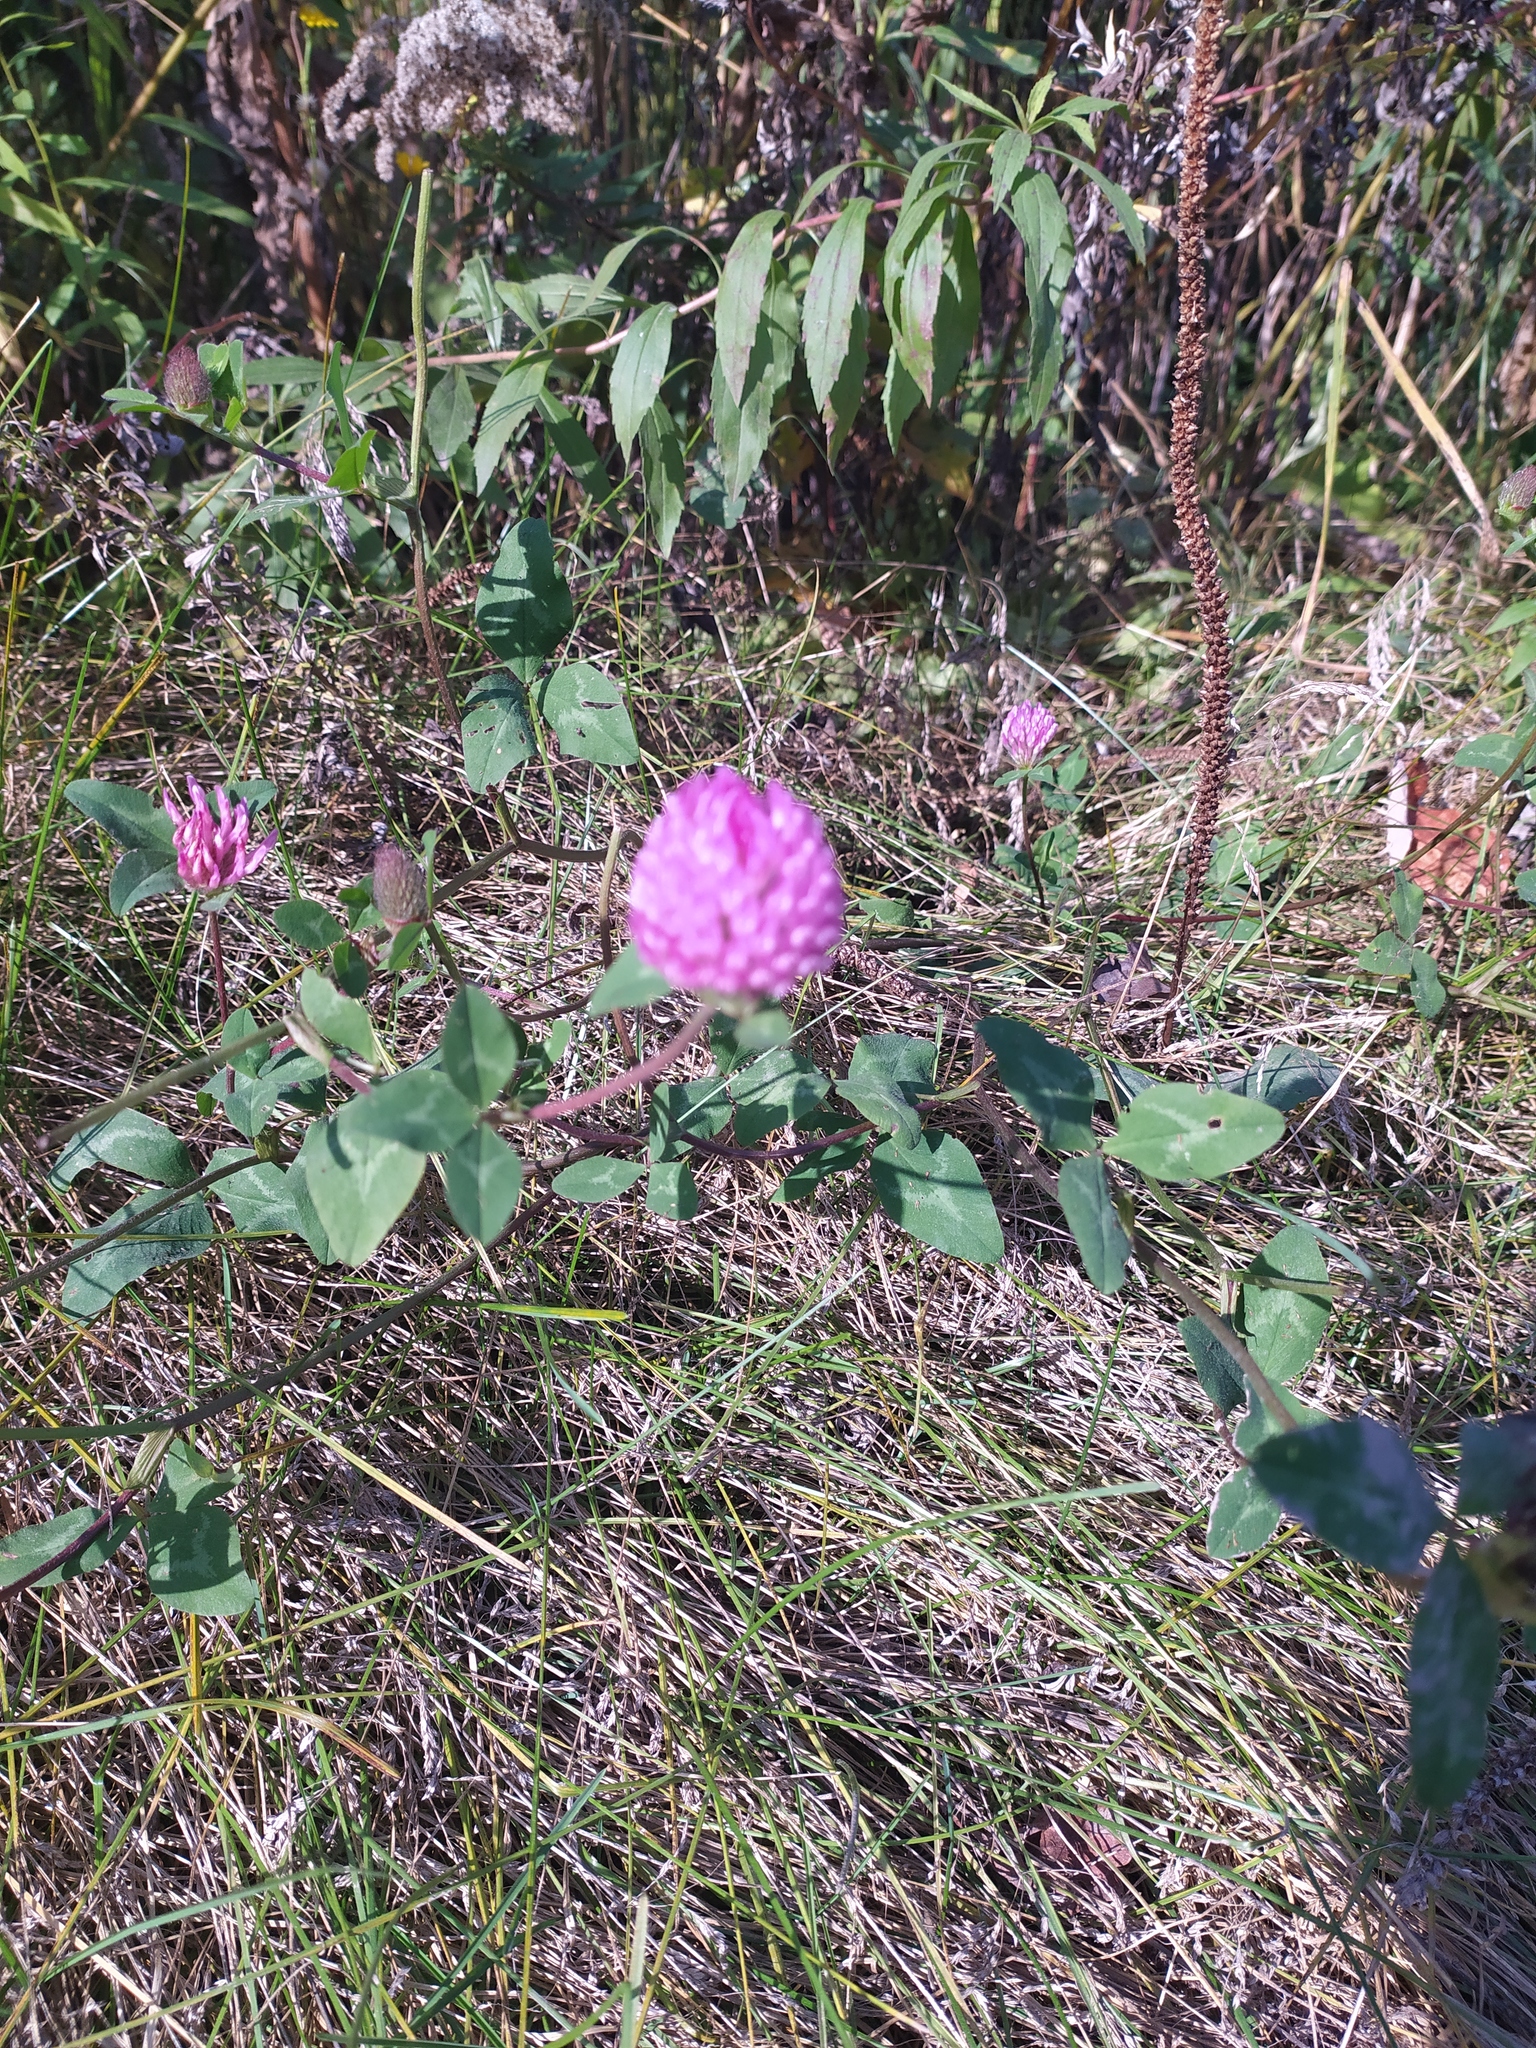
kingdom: Plantae
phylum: Tracheophyta
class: Magnoliopsida
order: Fabales
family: Fabaceae
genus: Trifolium
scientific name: Trifolium pratense
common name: Red clover
